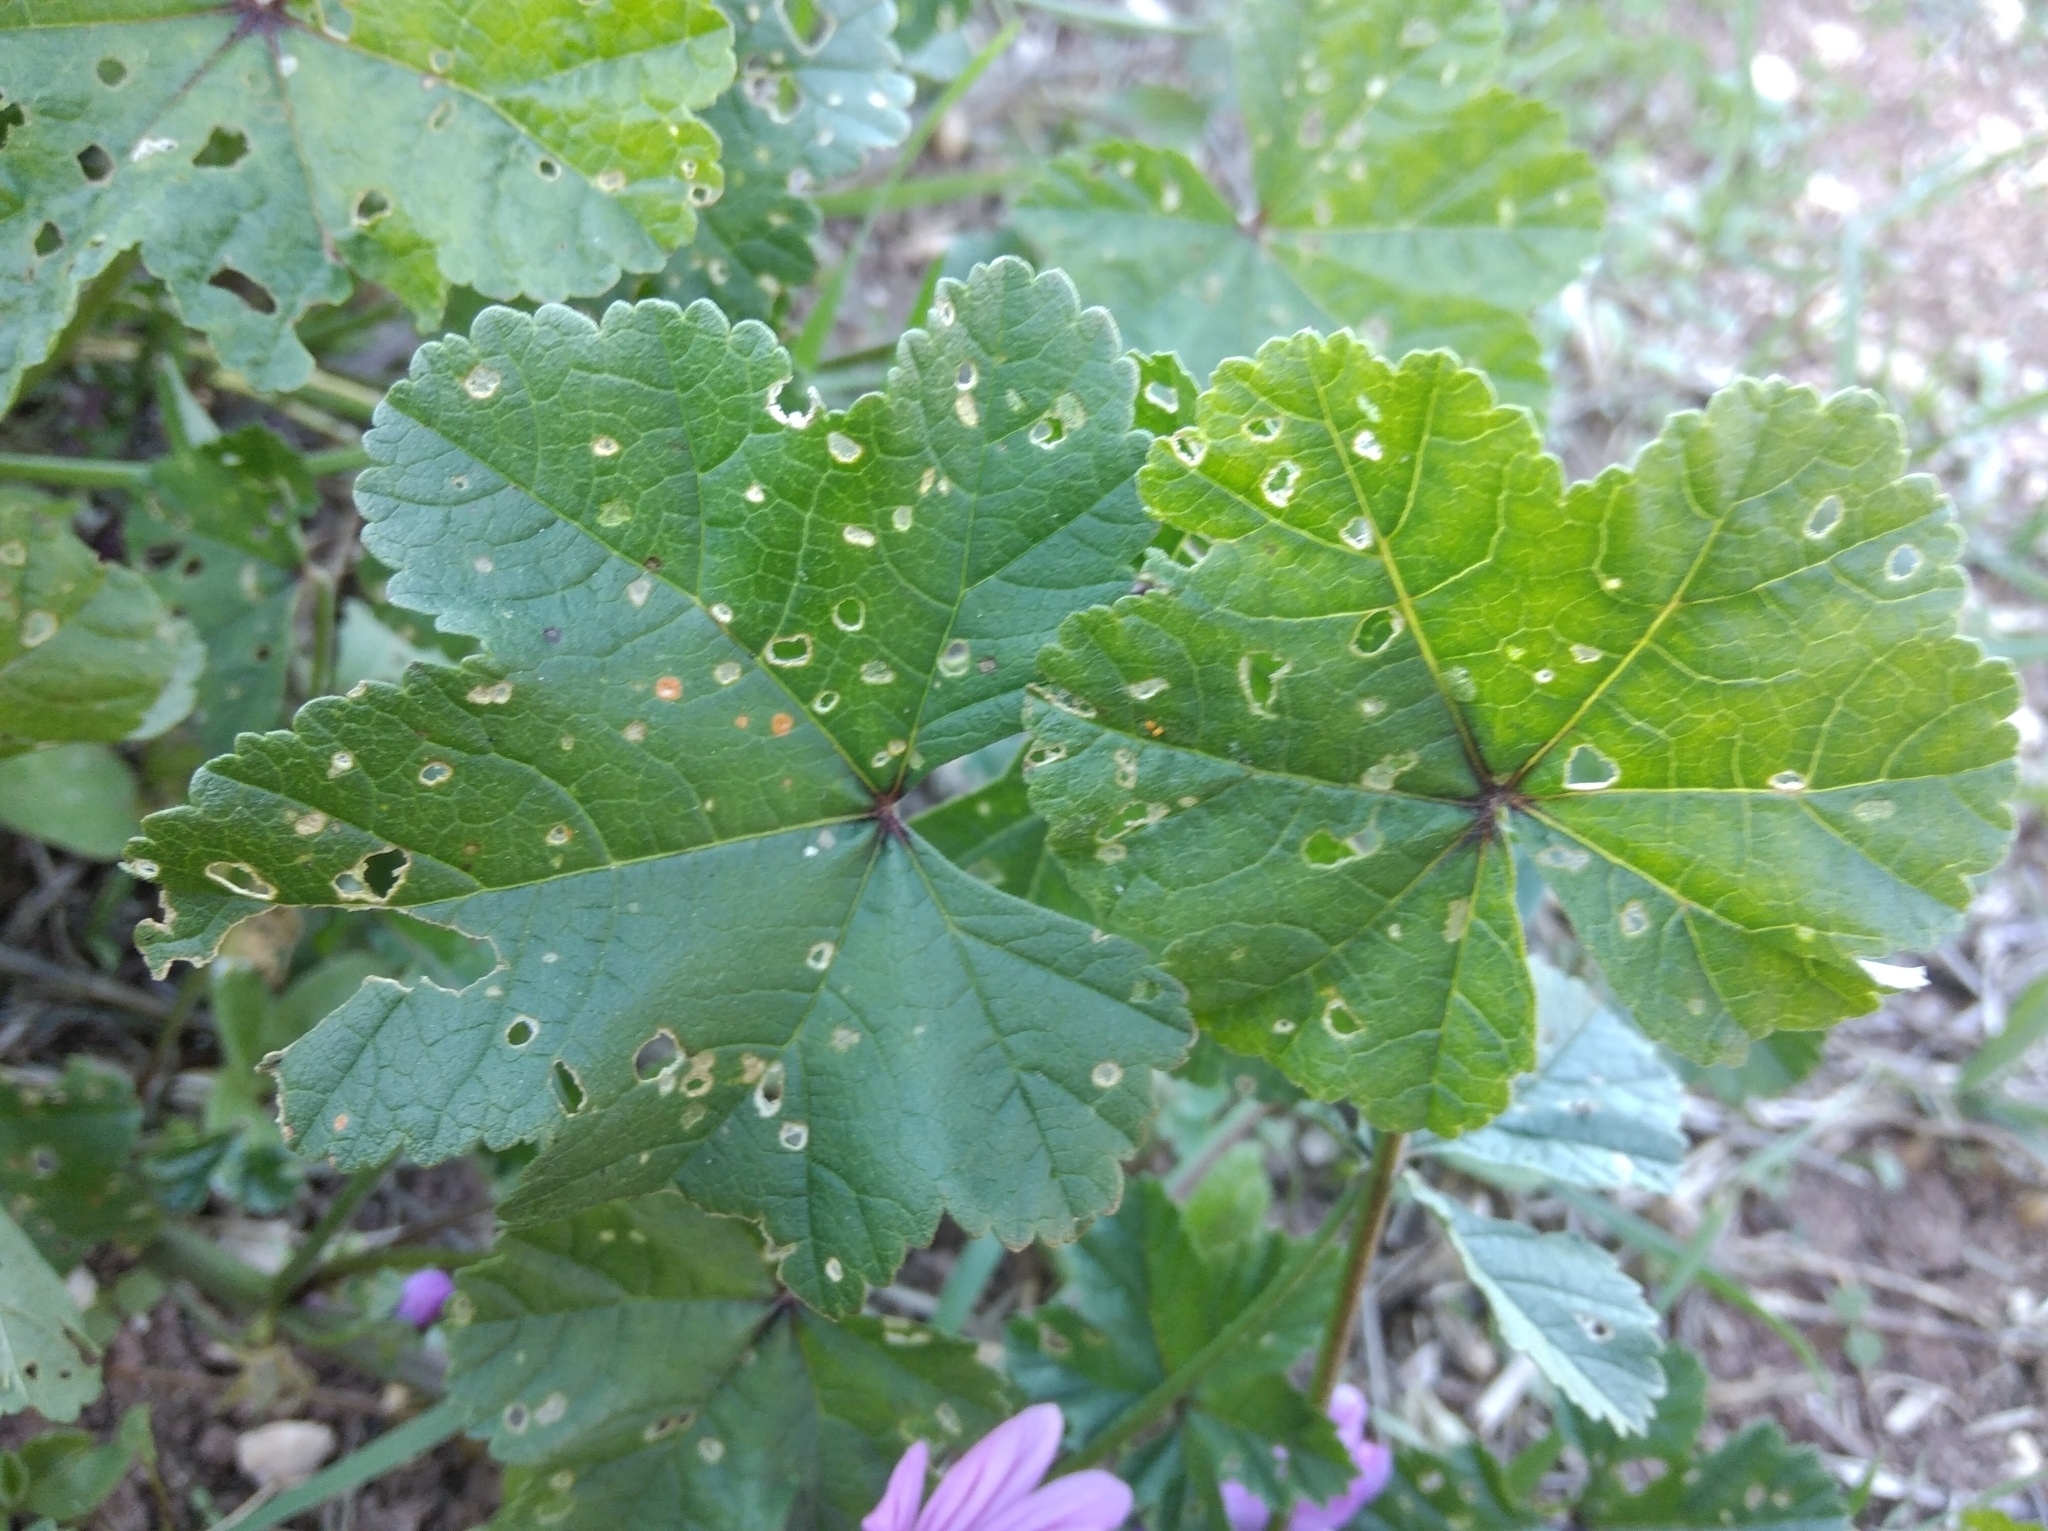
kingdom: Plantae
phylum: Tracheophyta
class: Magnoliopsida
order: Malvales
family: Malvaceae
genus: Malva
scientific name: Malva sylvestris
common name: Common mallow
